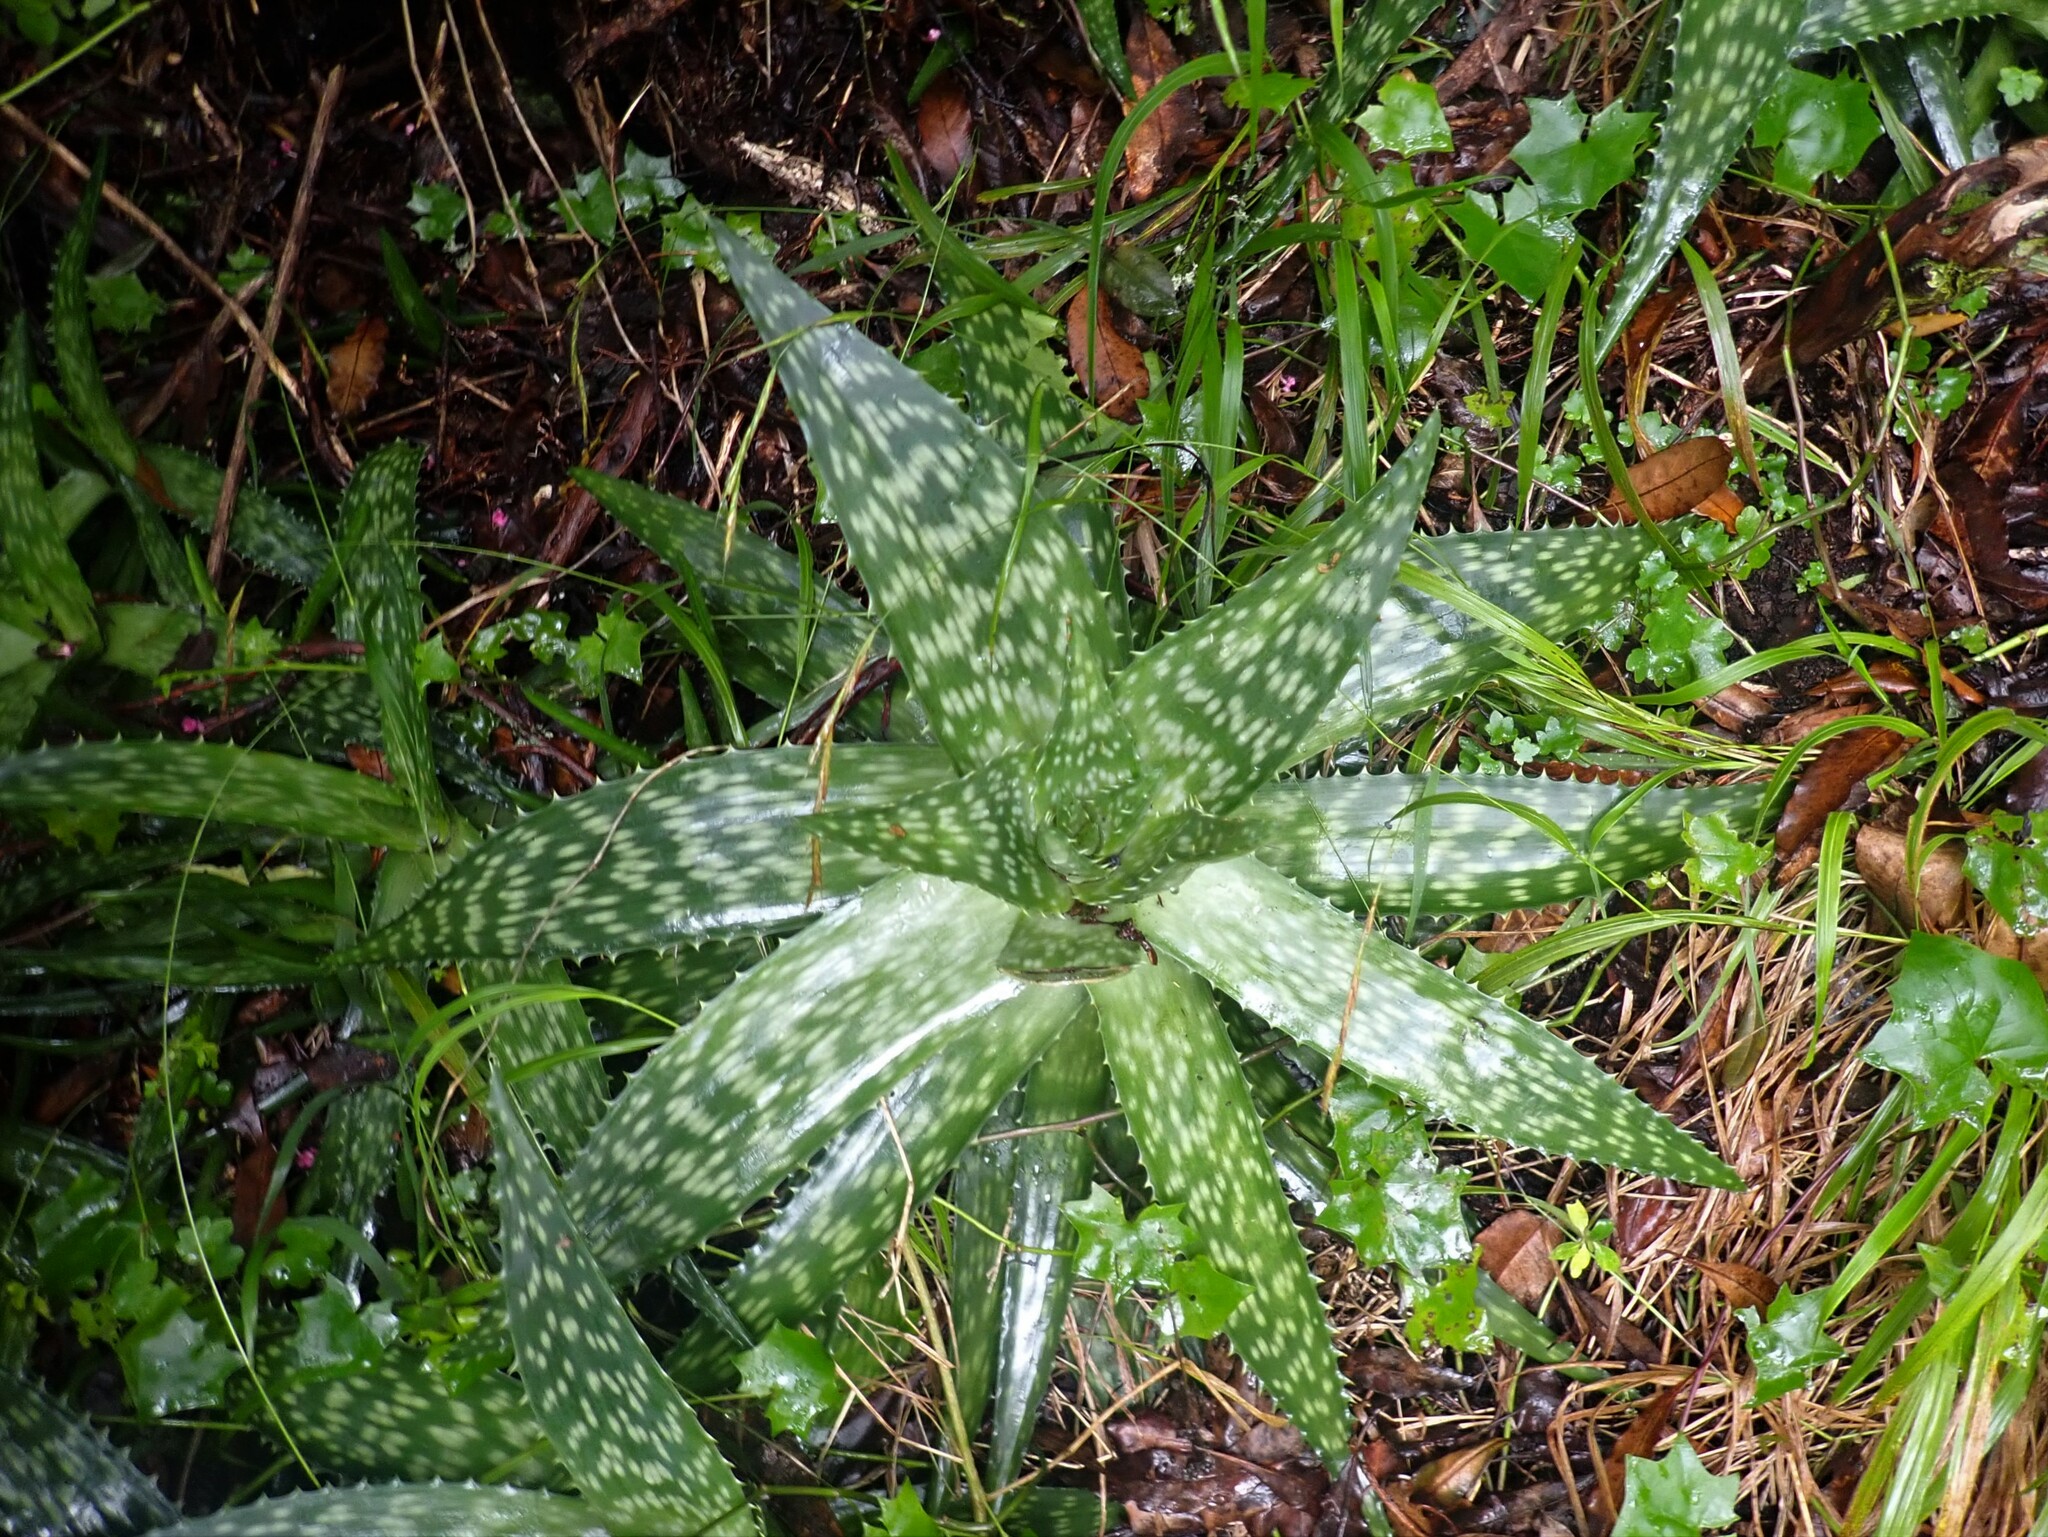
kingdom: Plantae
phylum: Tracheophyta
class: Liliopsida
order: Asparagales
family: Asphodelaceae
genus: Aloe
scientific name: Aloe maculata
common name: Broadleaf aloe
